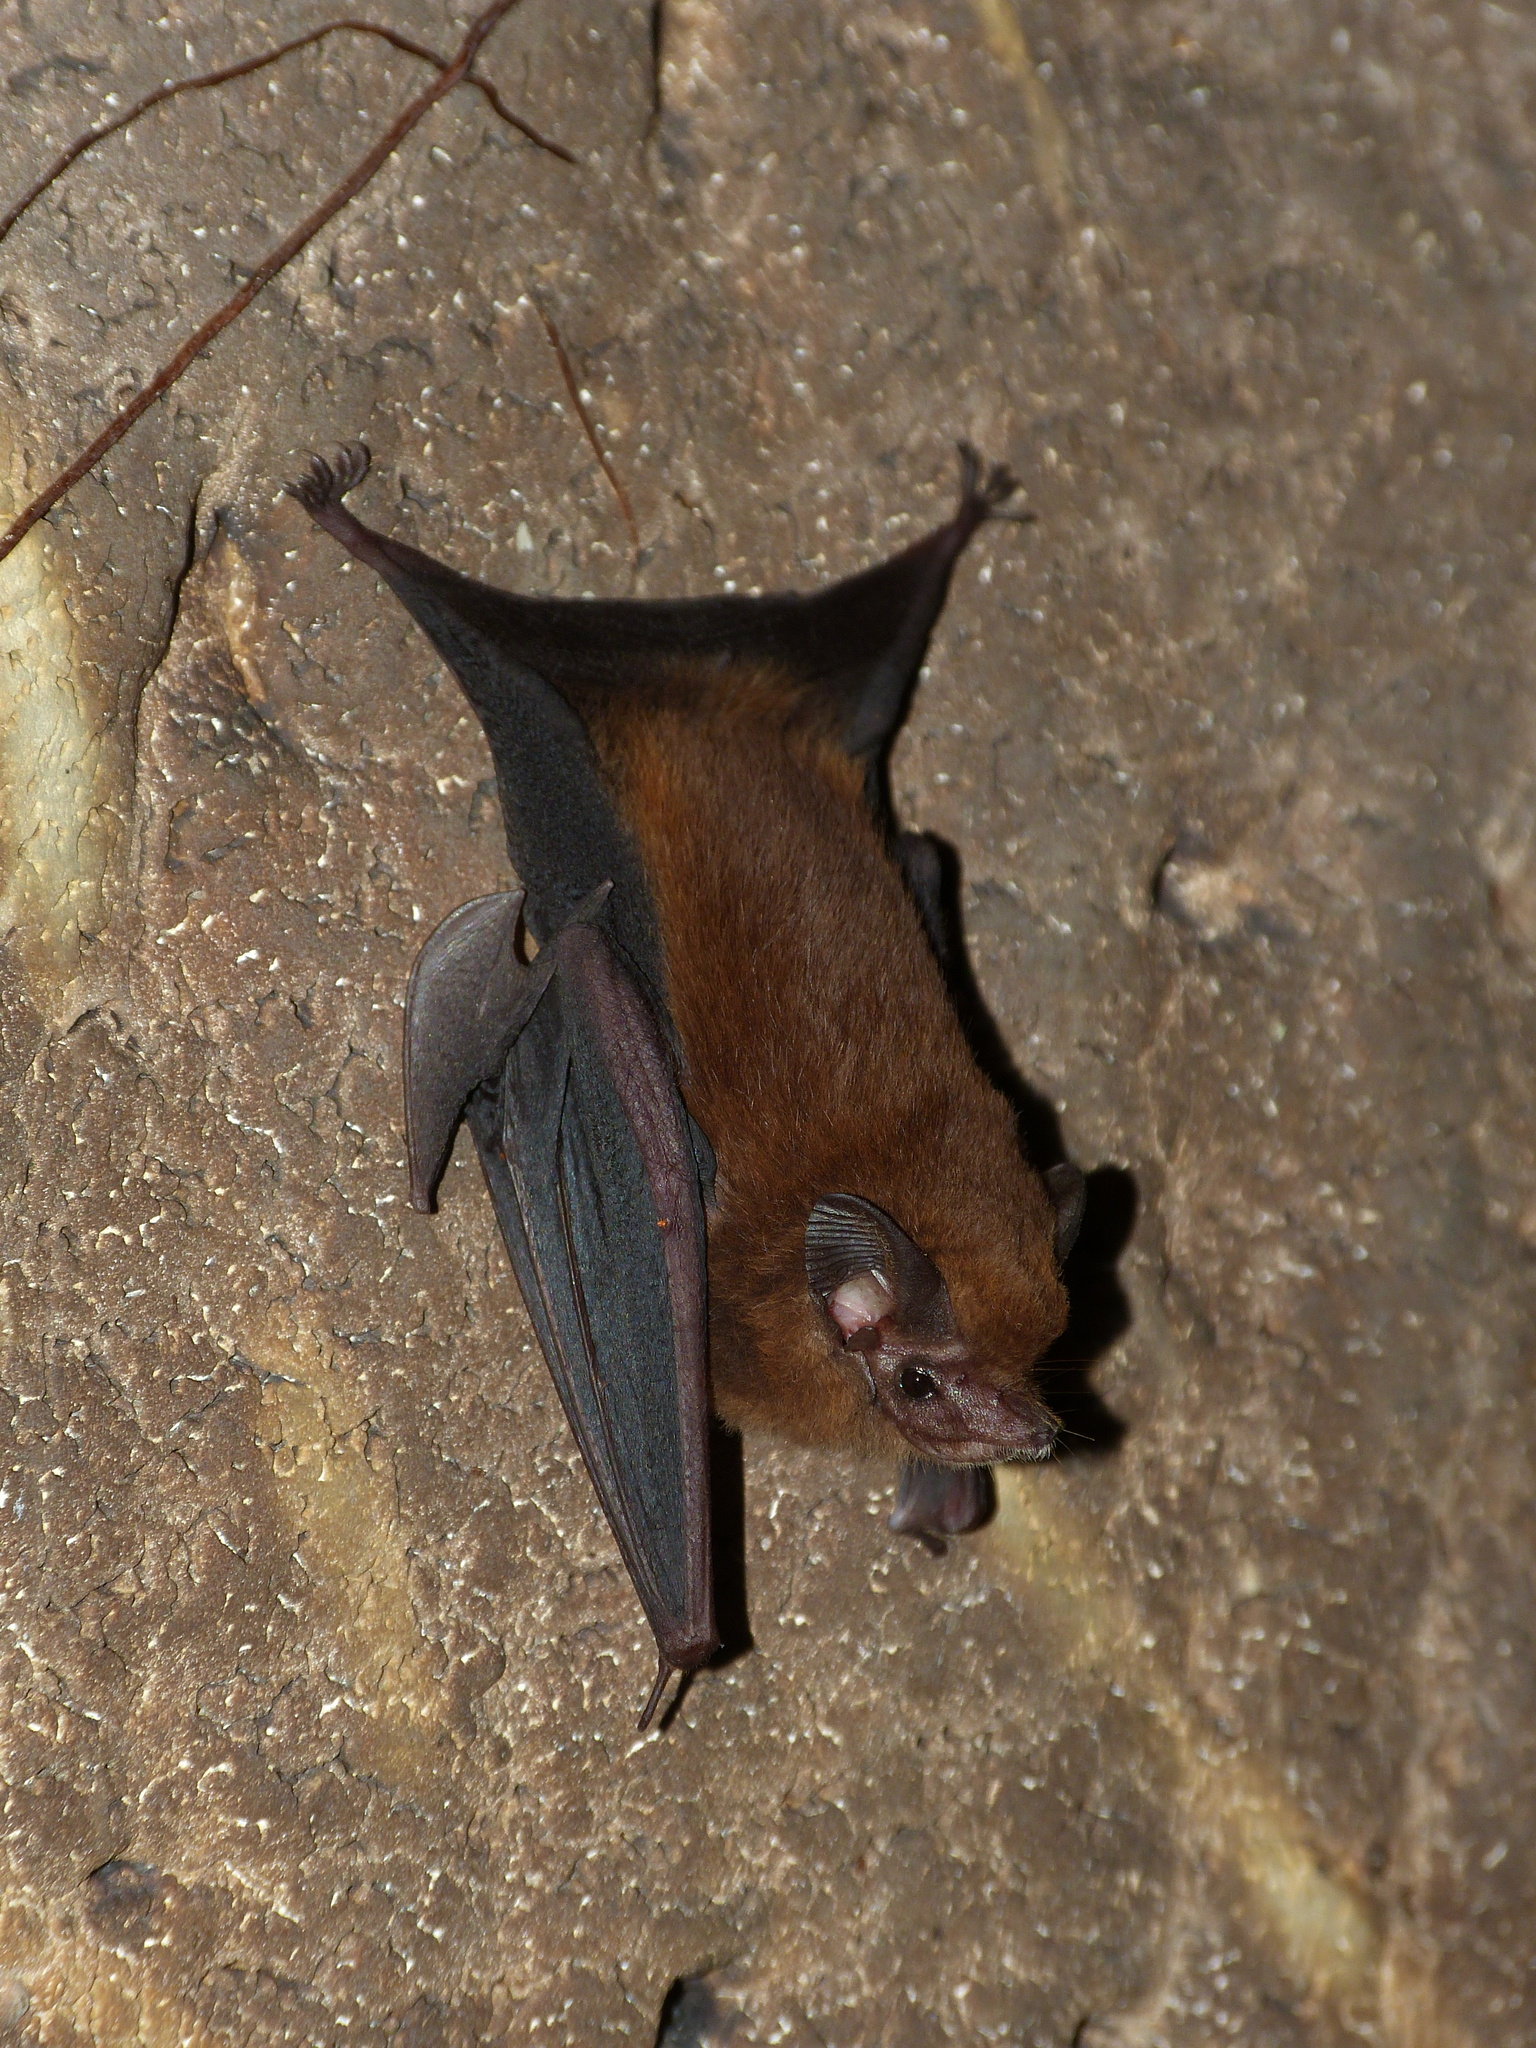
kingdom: Animalia
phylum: Chordata
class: Mammalia
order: Chiroptera
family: Emballonuridae
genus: Peropteryx
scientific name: Peropteryx macrotis
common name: Lesser dog-like bat
